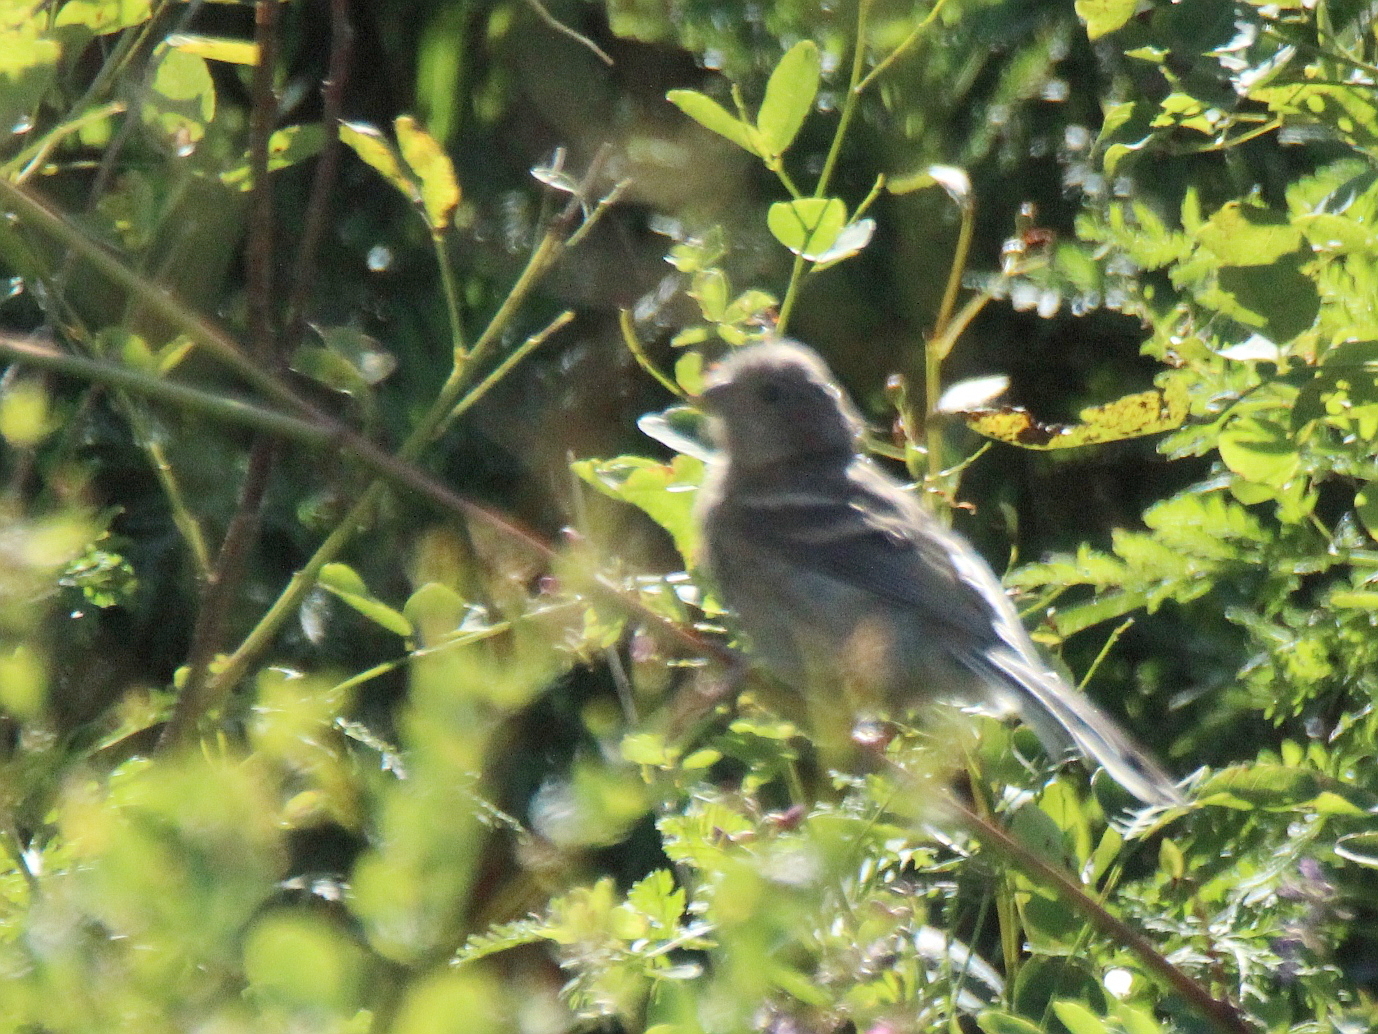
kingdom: Animalia
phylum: Chordata
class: Aves
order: Passeriformes
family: Fringillidae
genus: Carpodacus
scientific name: Carpodacus sibiricus
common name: Long-tailed rosefinch
